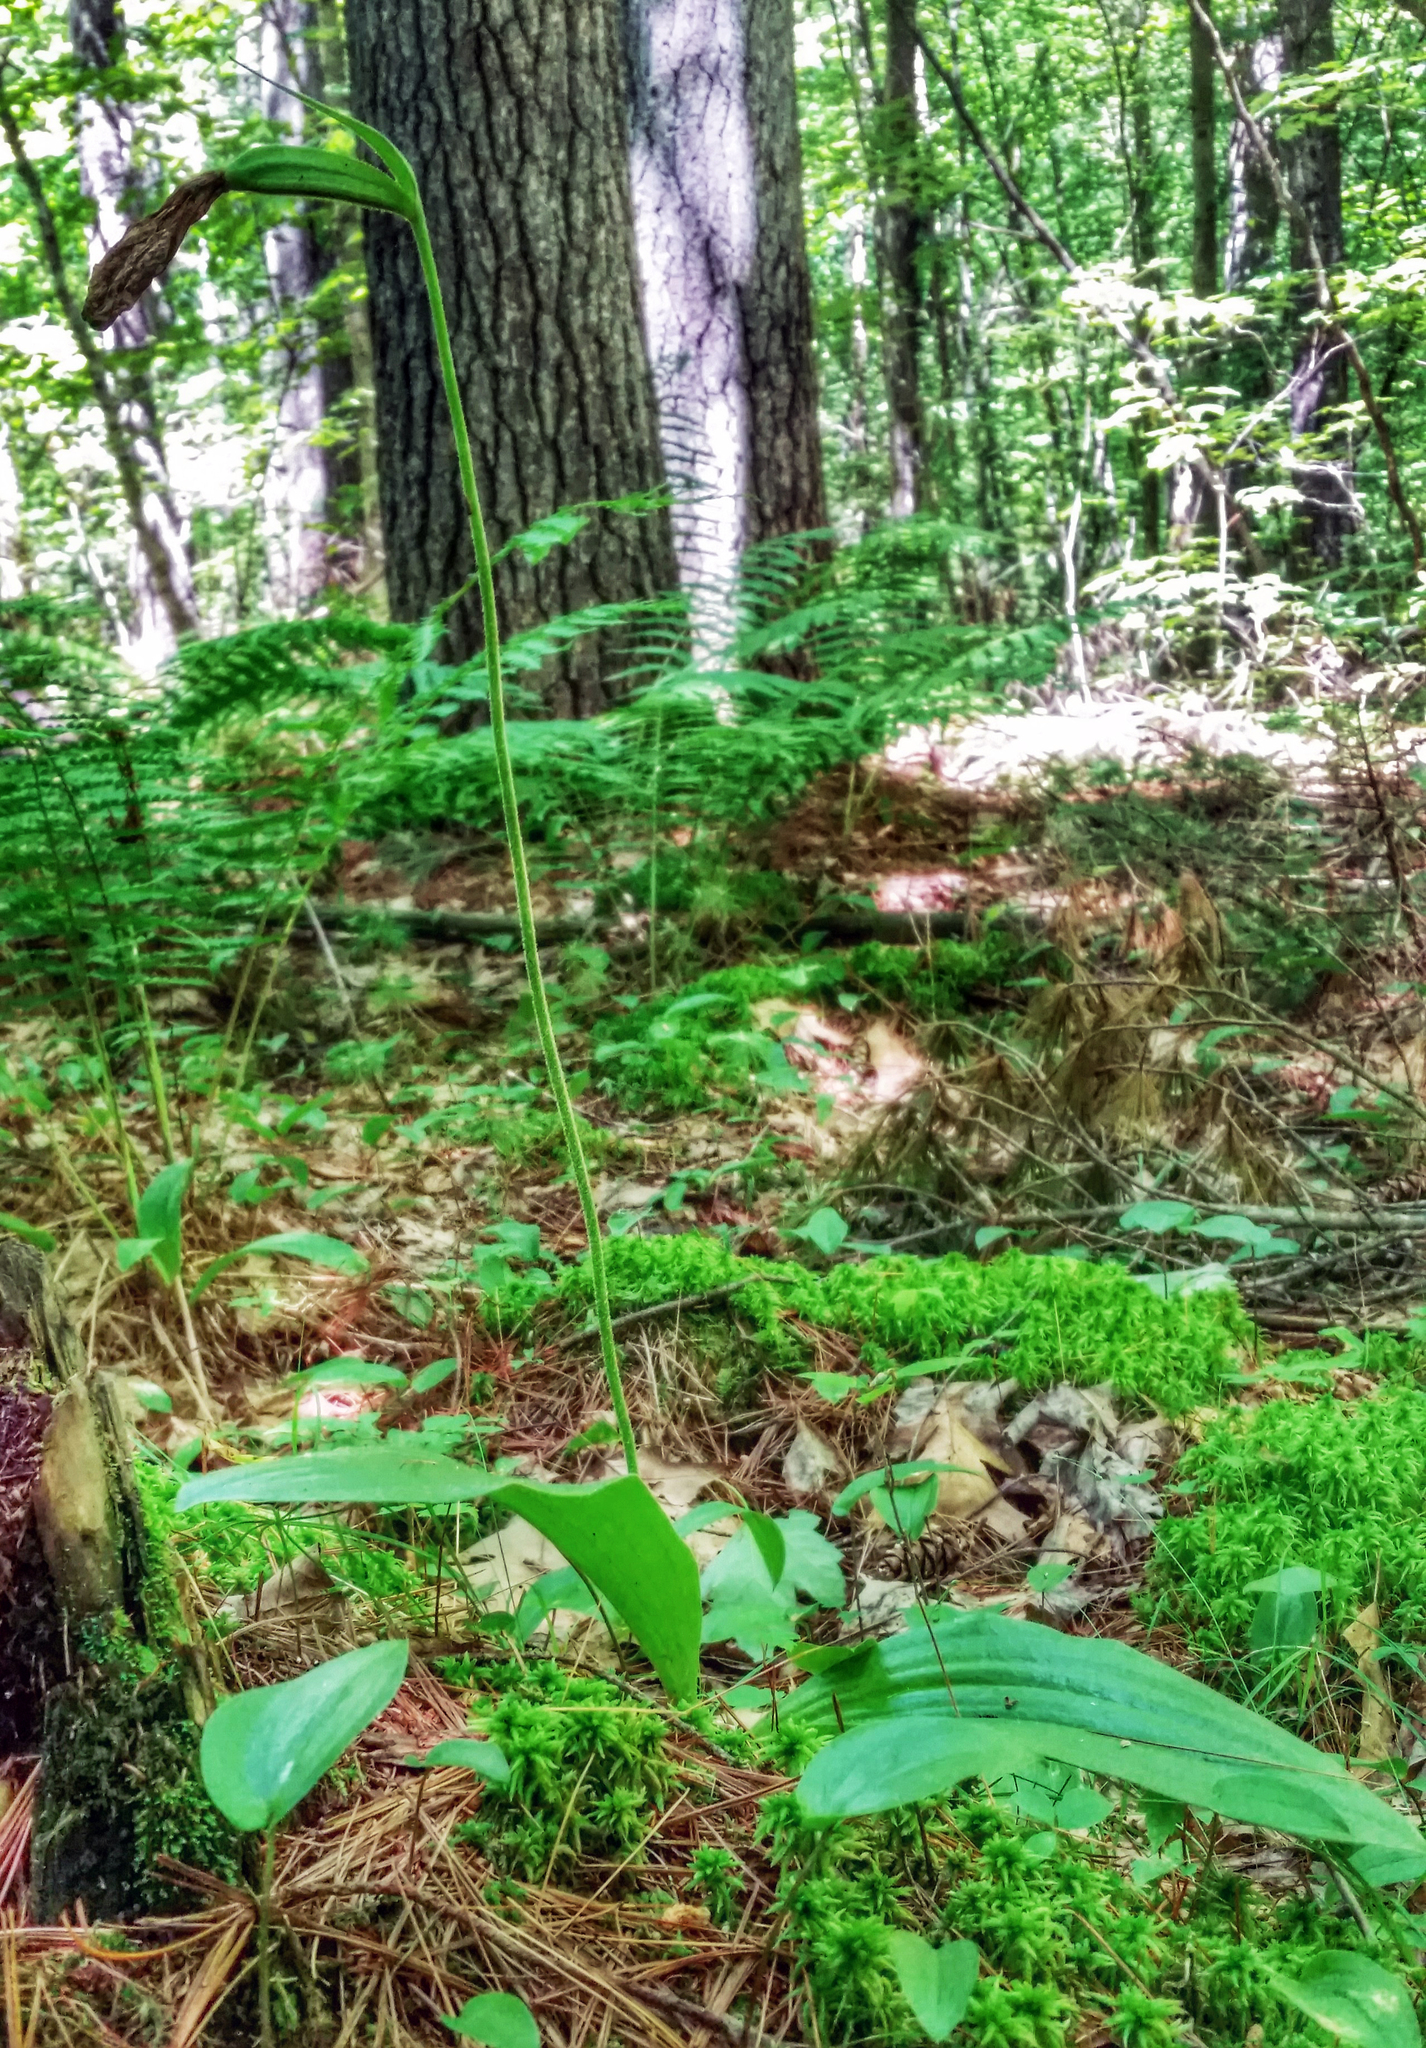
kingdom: Plantae
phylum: Tracheophyta
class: Liliopsida
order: Asparagales
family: Orchidaceae
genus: Cypripedium
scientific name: Cypripedium acaule
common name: Pink lady's-slipper
